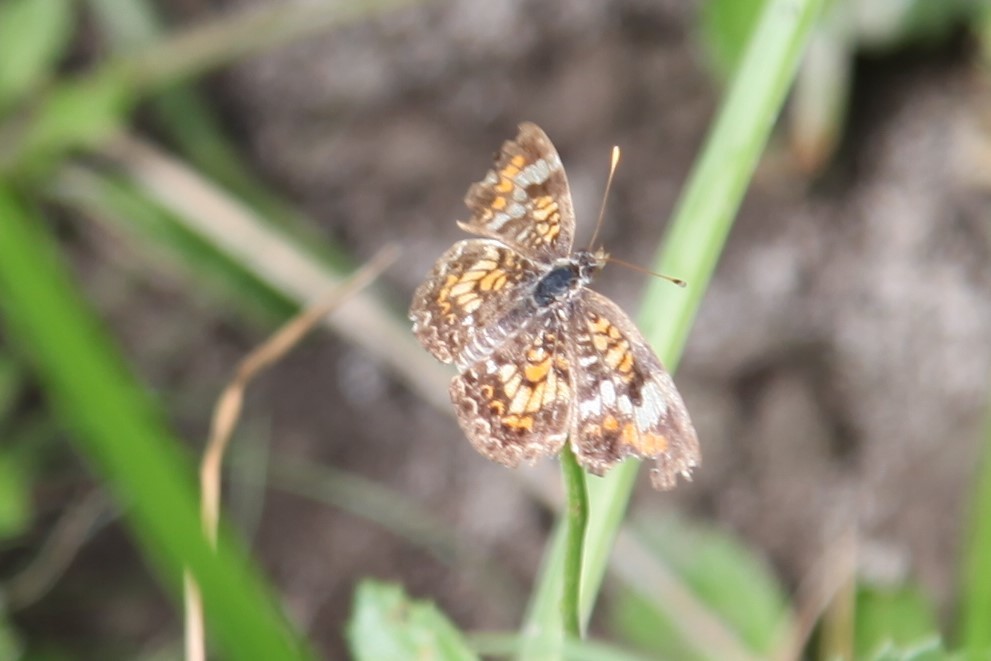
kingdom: Animalia
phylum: Arthropoda
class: Insecta
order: Lepidoptera
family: Nymphalidae
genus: Phyciodes
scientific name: Phyciodes phaon
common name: Phaon crescent
